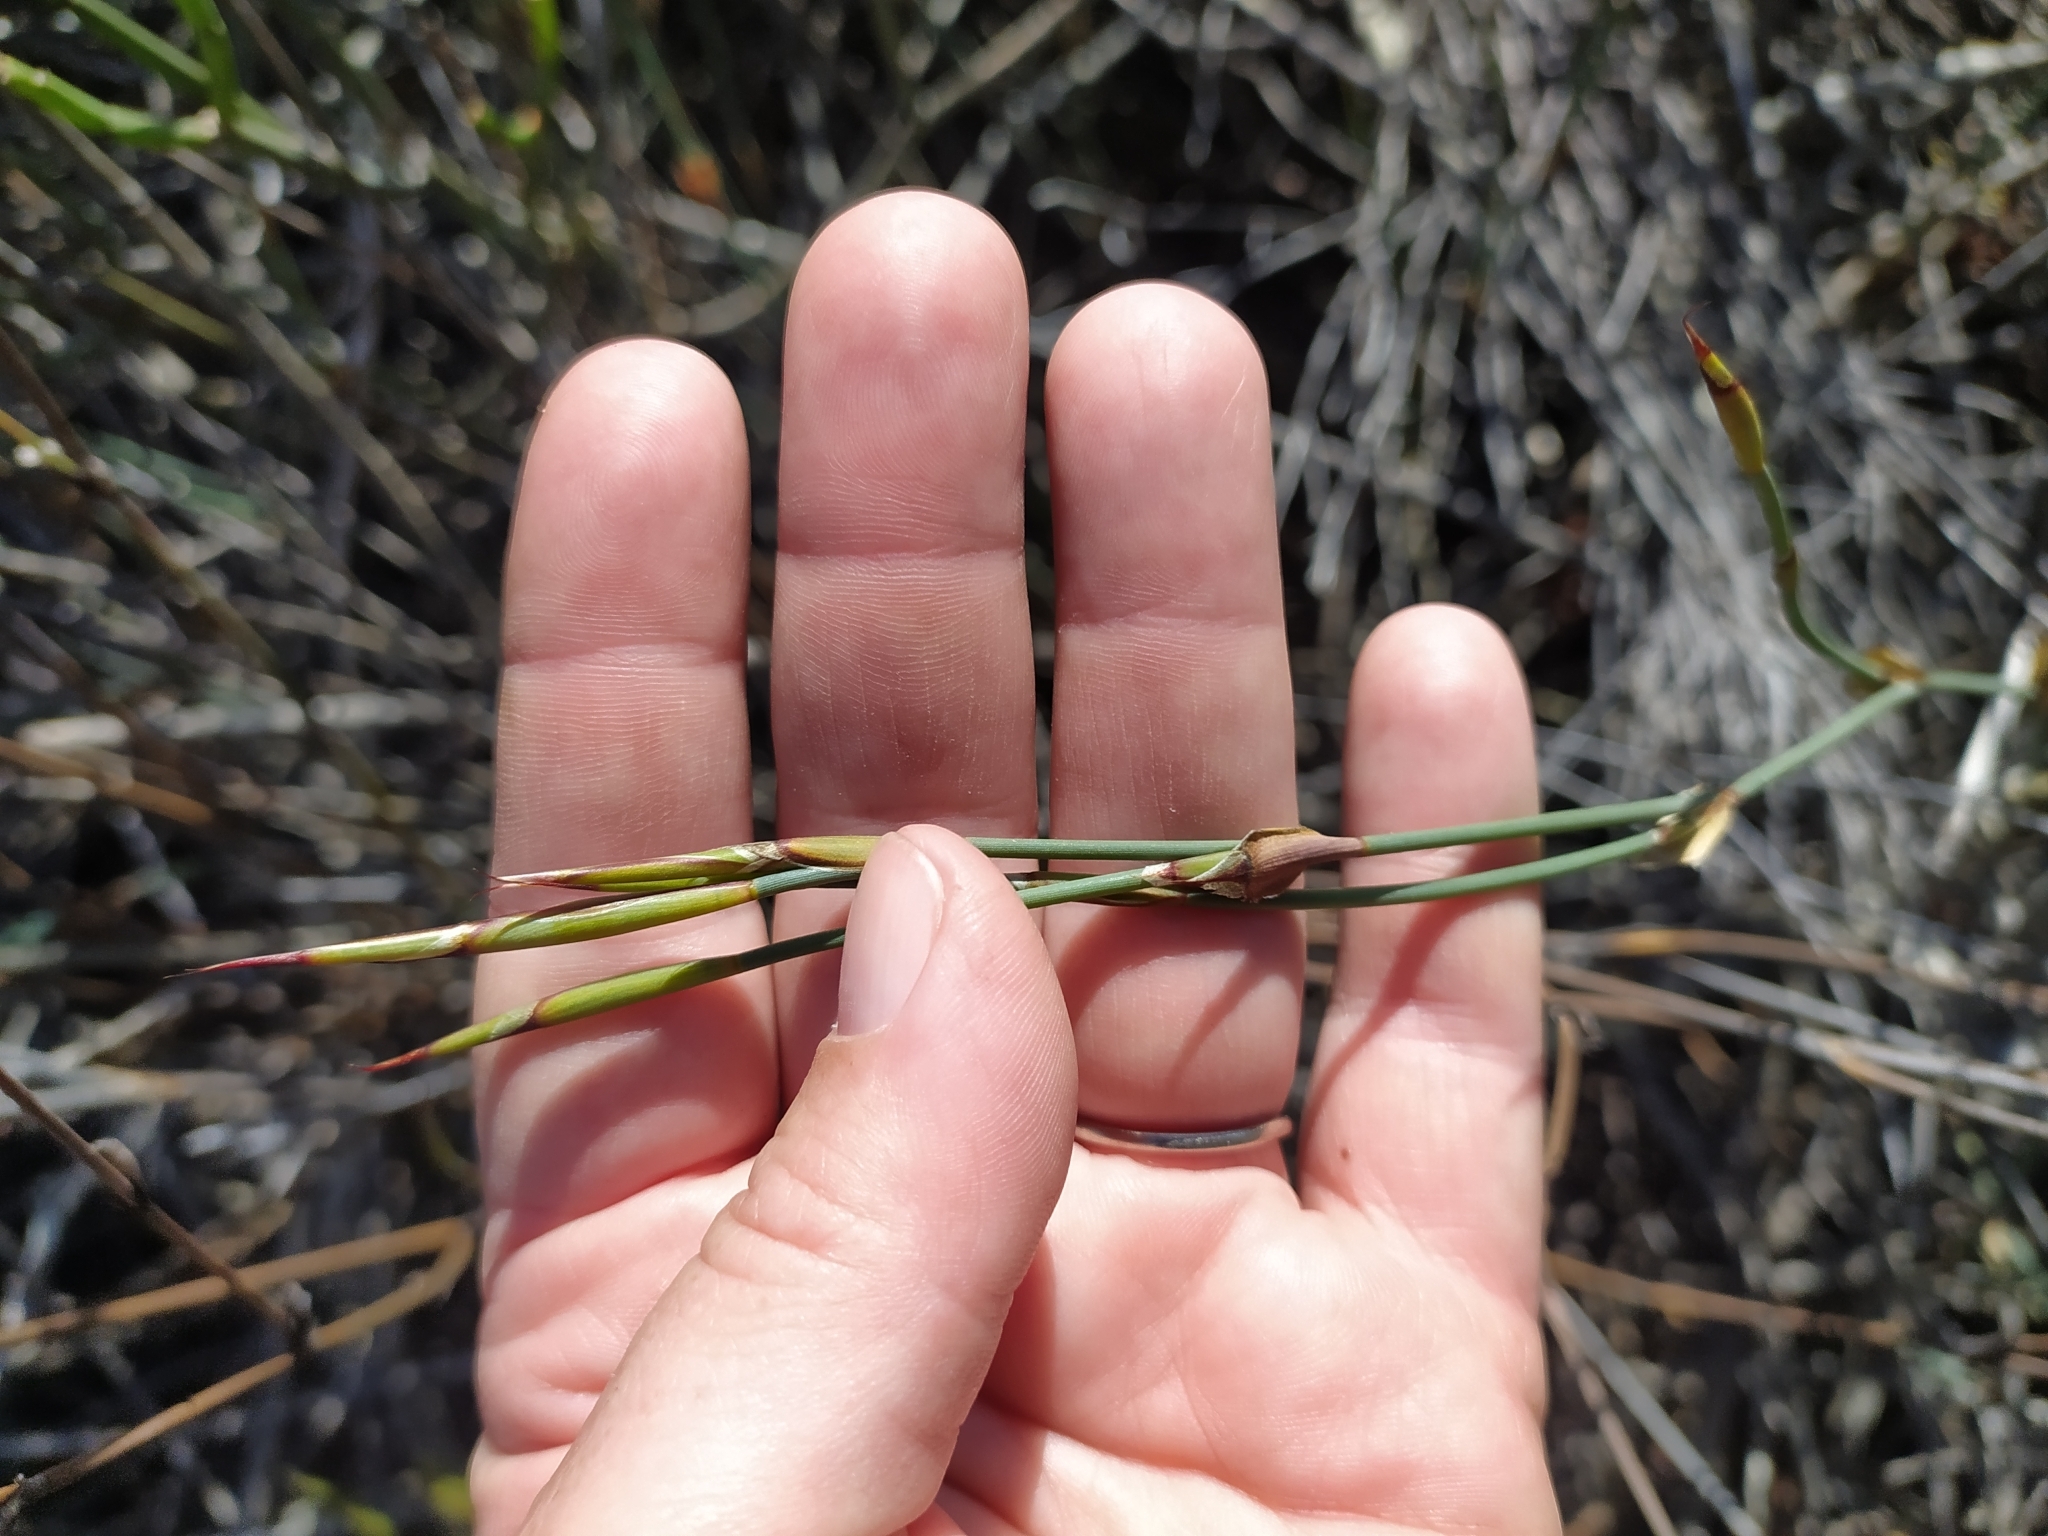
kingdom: Plantae
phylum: Tracheophyta
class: Liliopsida
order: Poales
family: Restionaceae
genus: Willdenowia
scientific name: Willdenowia incurvata
